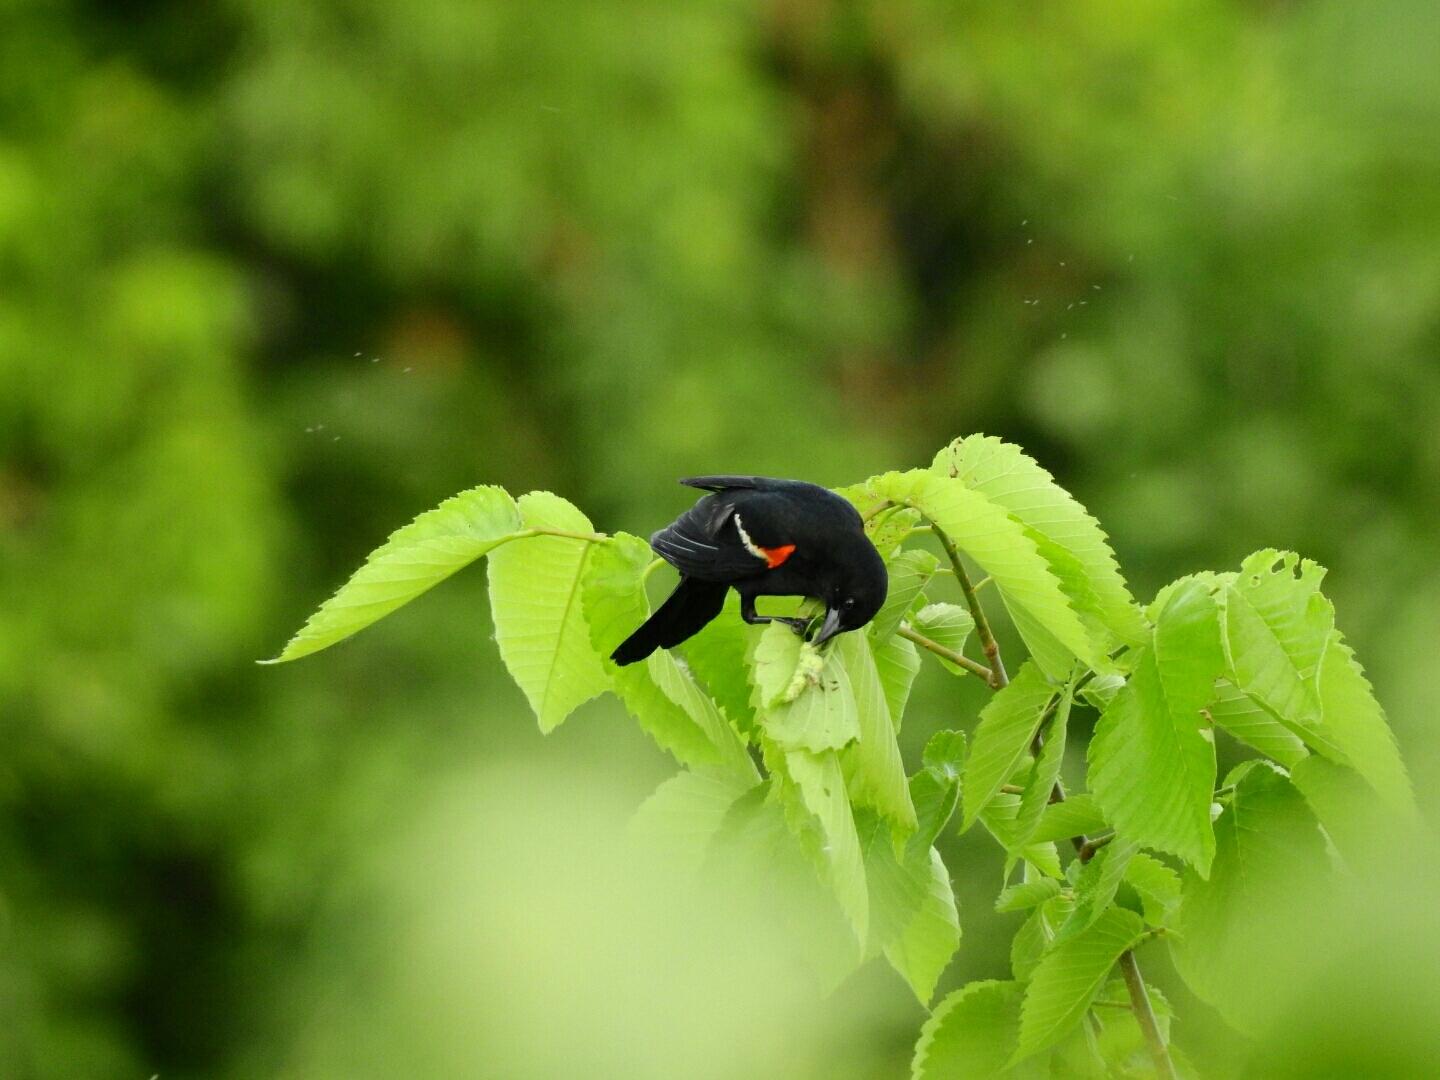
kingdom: Animalia
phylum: Chordata
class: Aves
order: Passeriformes
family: Icteridae
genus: Agelaius
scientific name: Agelaius phoeniceus
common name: Red-winged blackbird
